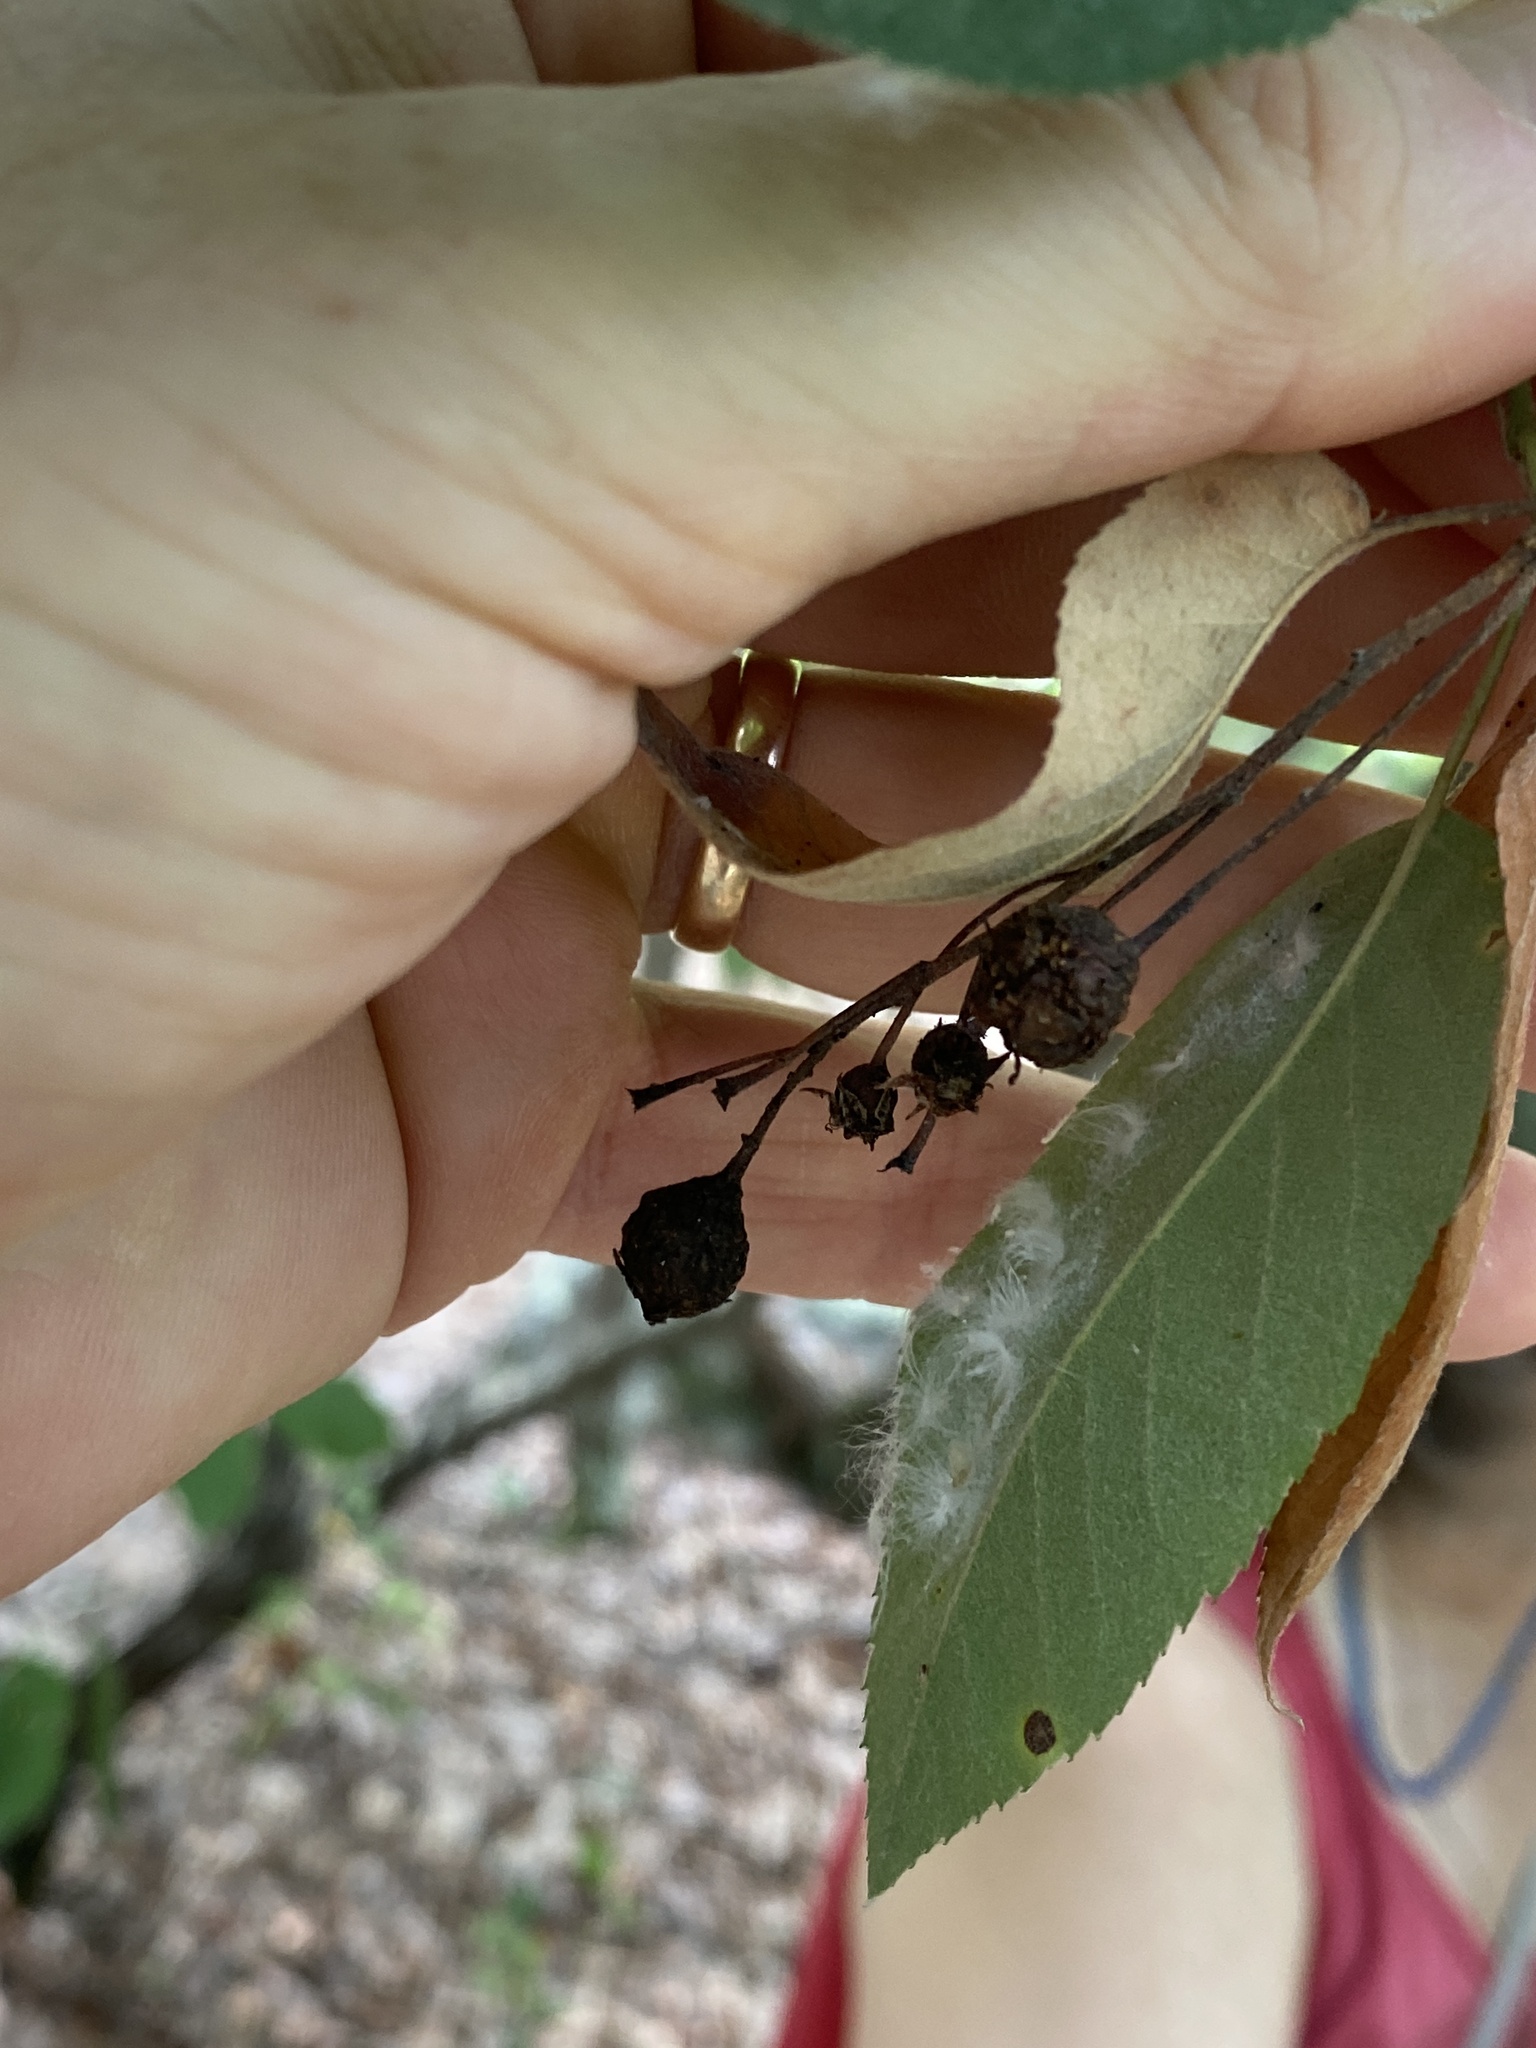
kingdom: Plantae
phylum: Tracheophyta
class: Magnoliopsida
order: Rosales
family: Rosaceae
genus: Amelanchier
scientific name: Amelanchier arborea
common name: Downy serviceberry
